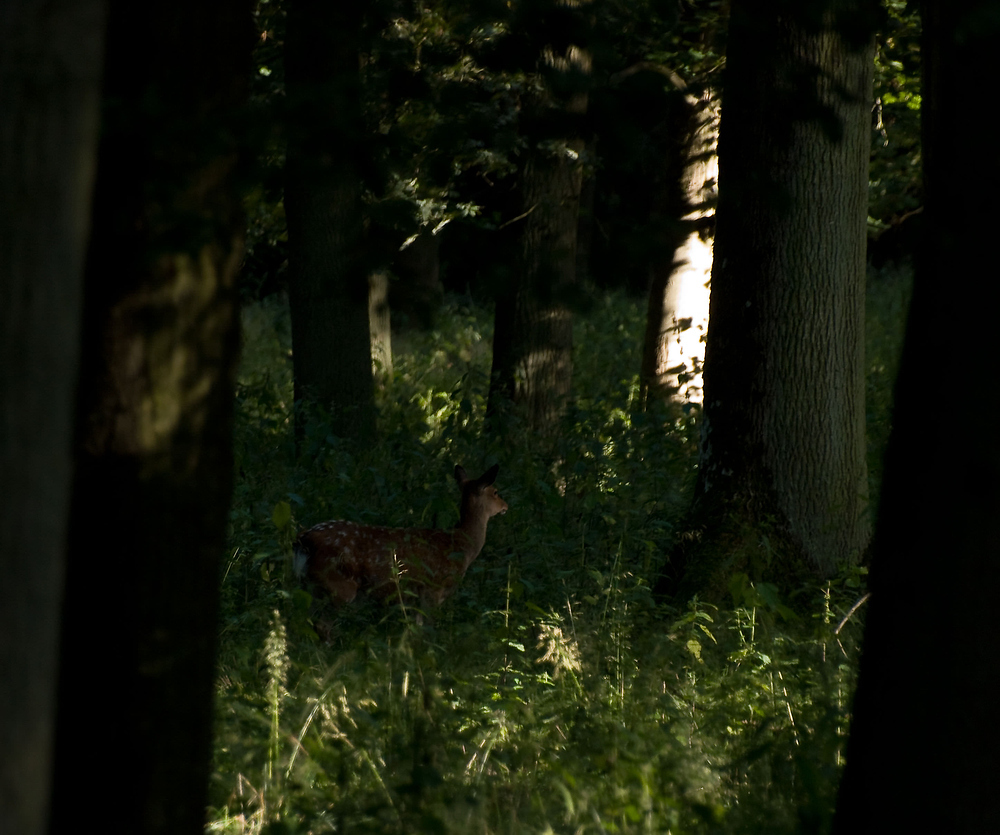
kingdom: Animalia
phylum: Chordata
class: Mammalia
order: Artiodactyla
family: Cervidae
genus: Cervus
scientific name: Cervus nippon
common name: Sika deer
